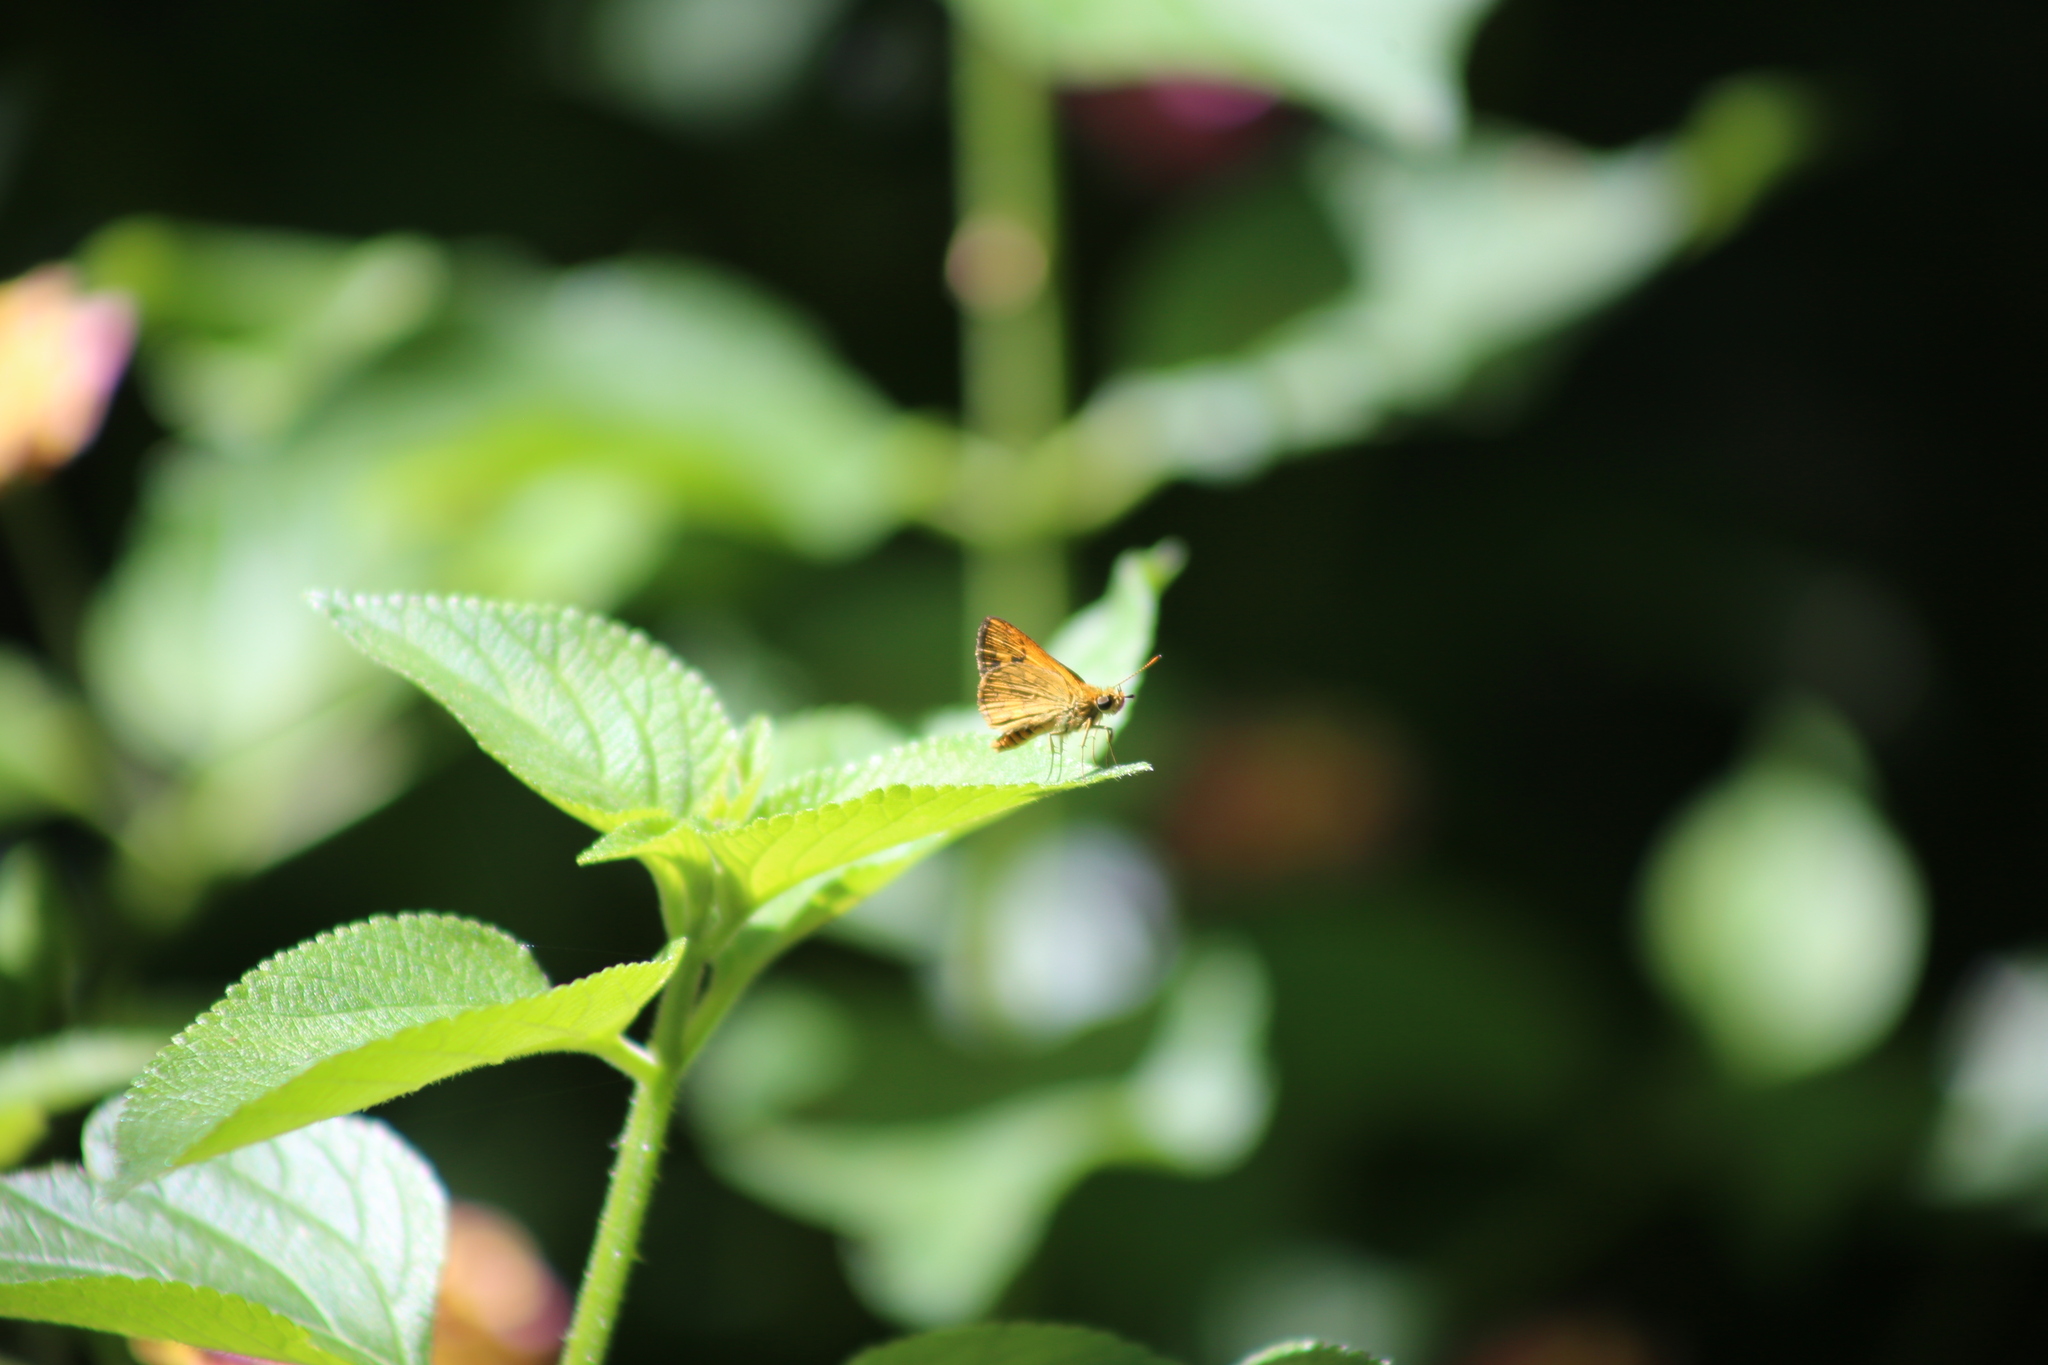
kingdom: Animalia
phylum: Arthropoda
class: Insecta
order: Lepidoptera
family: Hesperiidae
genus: Suniana
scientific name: Suniana sunias
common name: Wide-brand grass-dart
